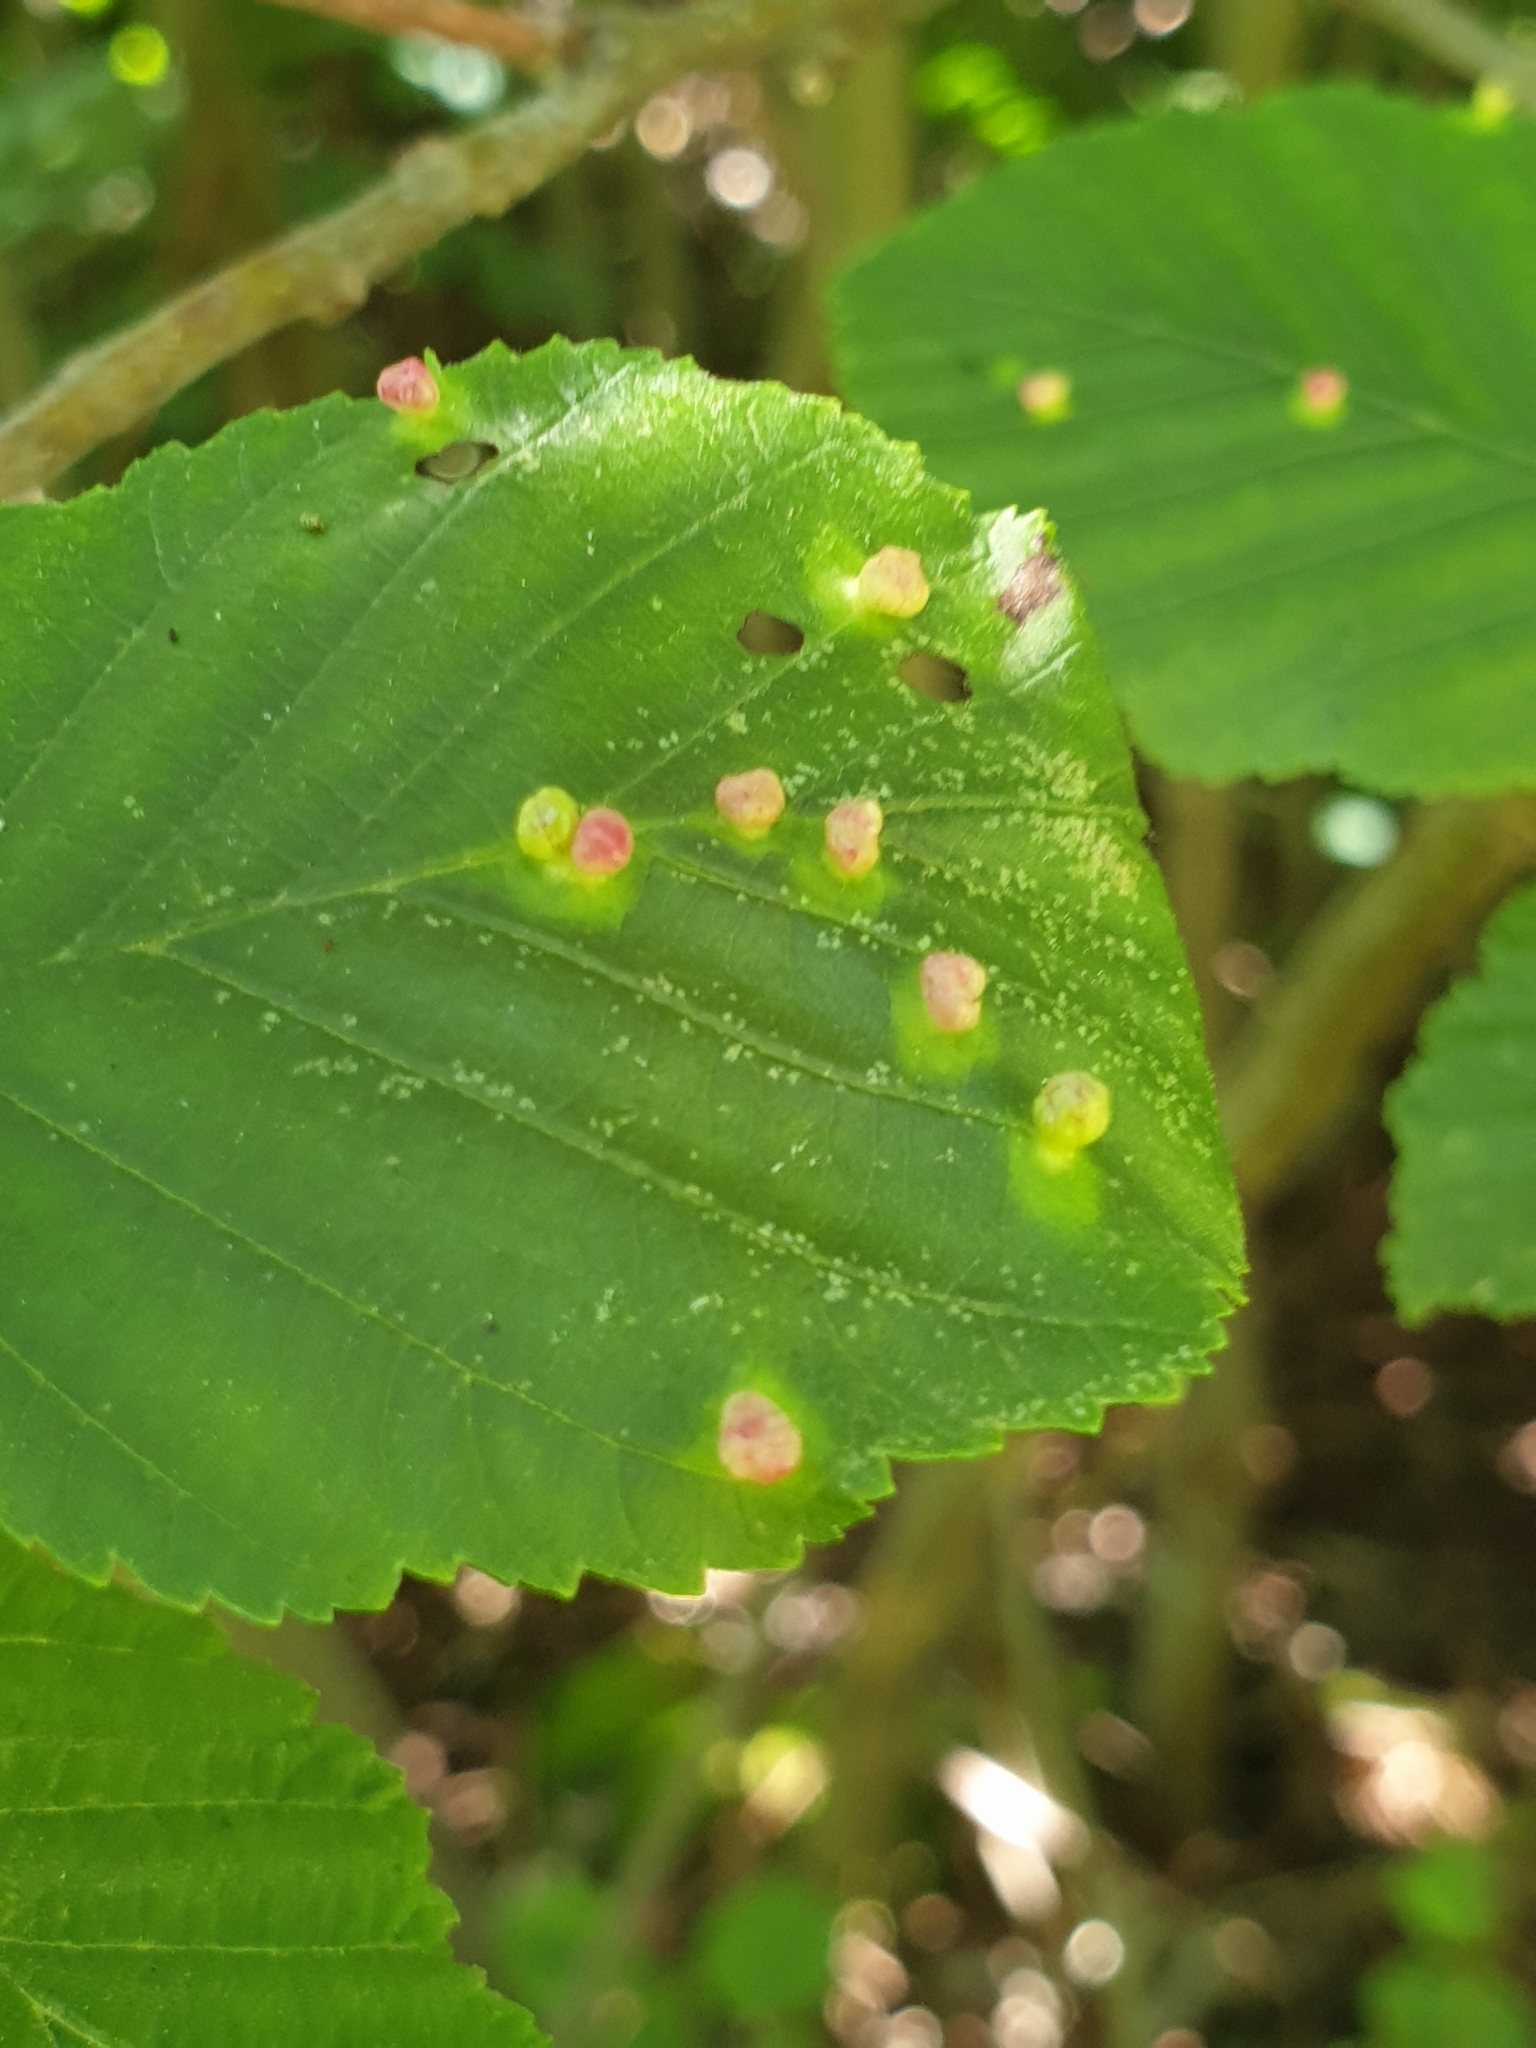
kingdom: Animalia
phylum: Arthropoda
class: Arachnida
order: Trombidiformes
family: Eriophyidae
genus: Eriophyes
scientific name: Eriophyes laevis
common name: Alder leaf gall mite
